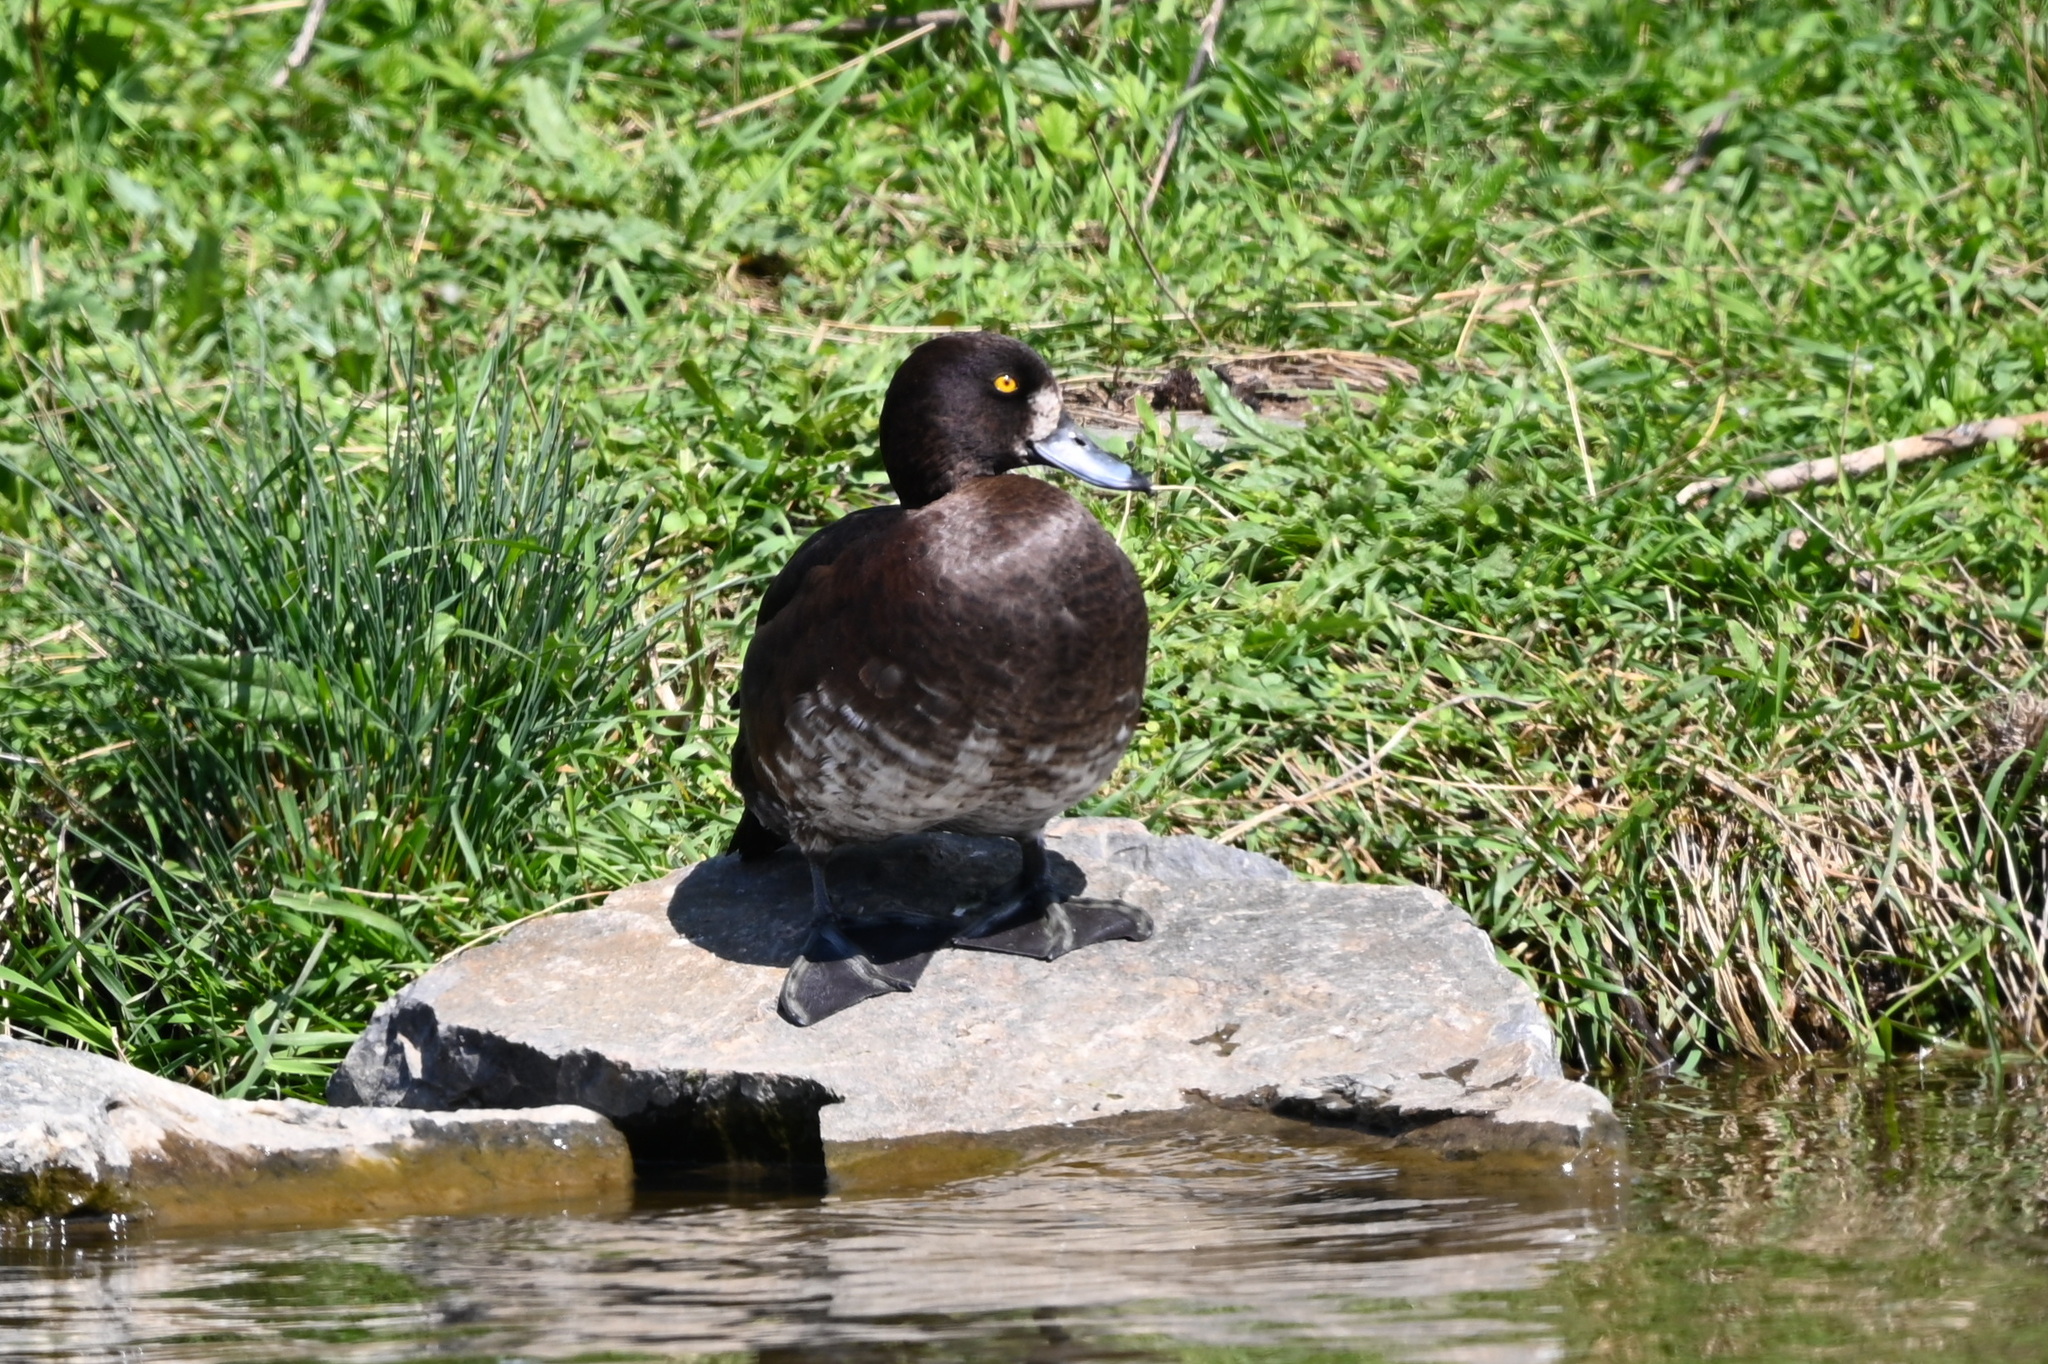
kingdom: Animalia
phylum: Chordata
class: Aves
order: Anseriformes
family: Anatidae
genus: Aythya
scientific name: Aythya fuligula
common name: Tufted duck
